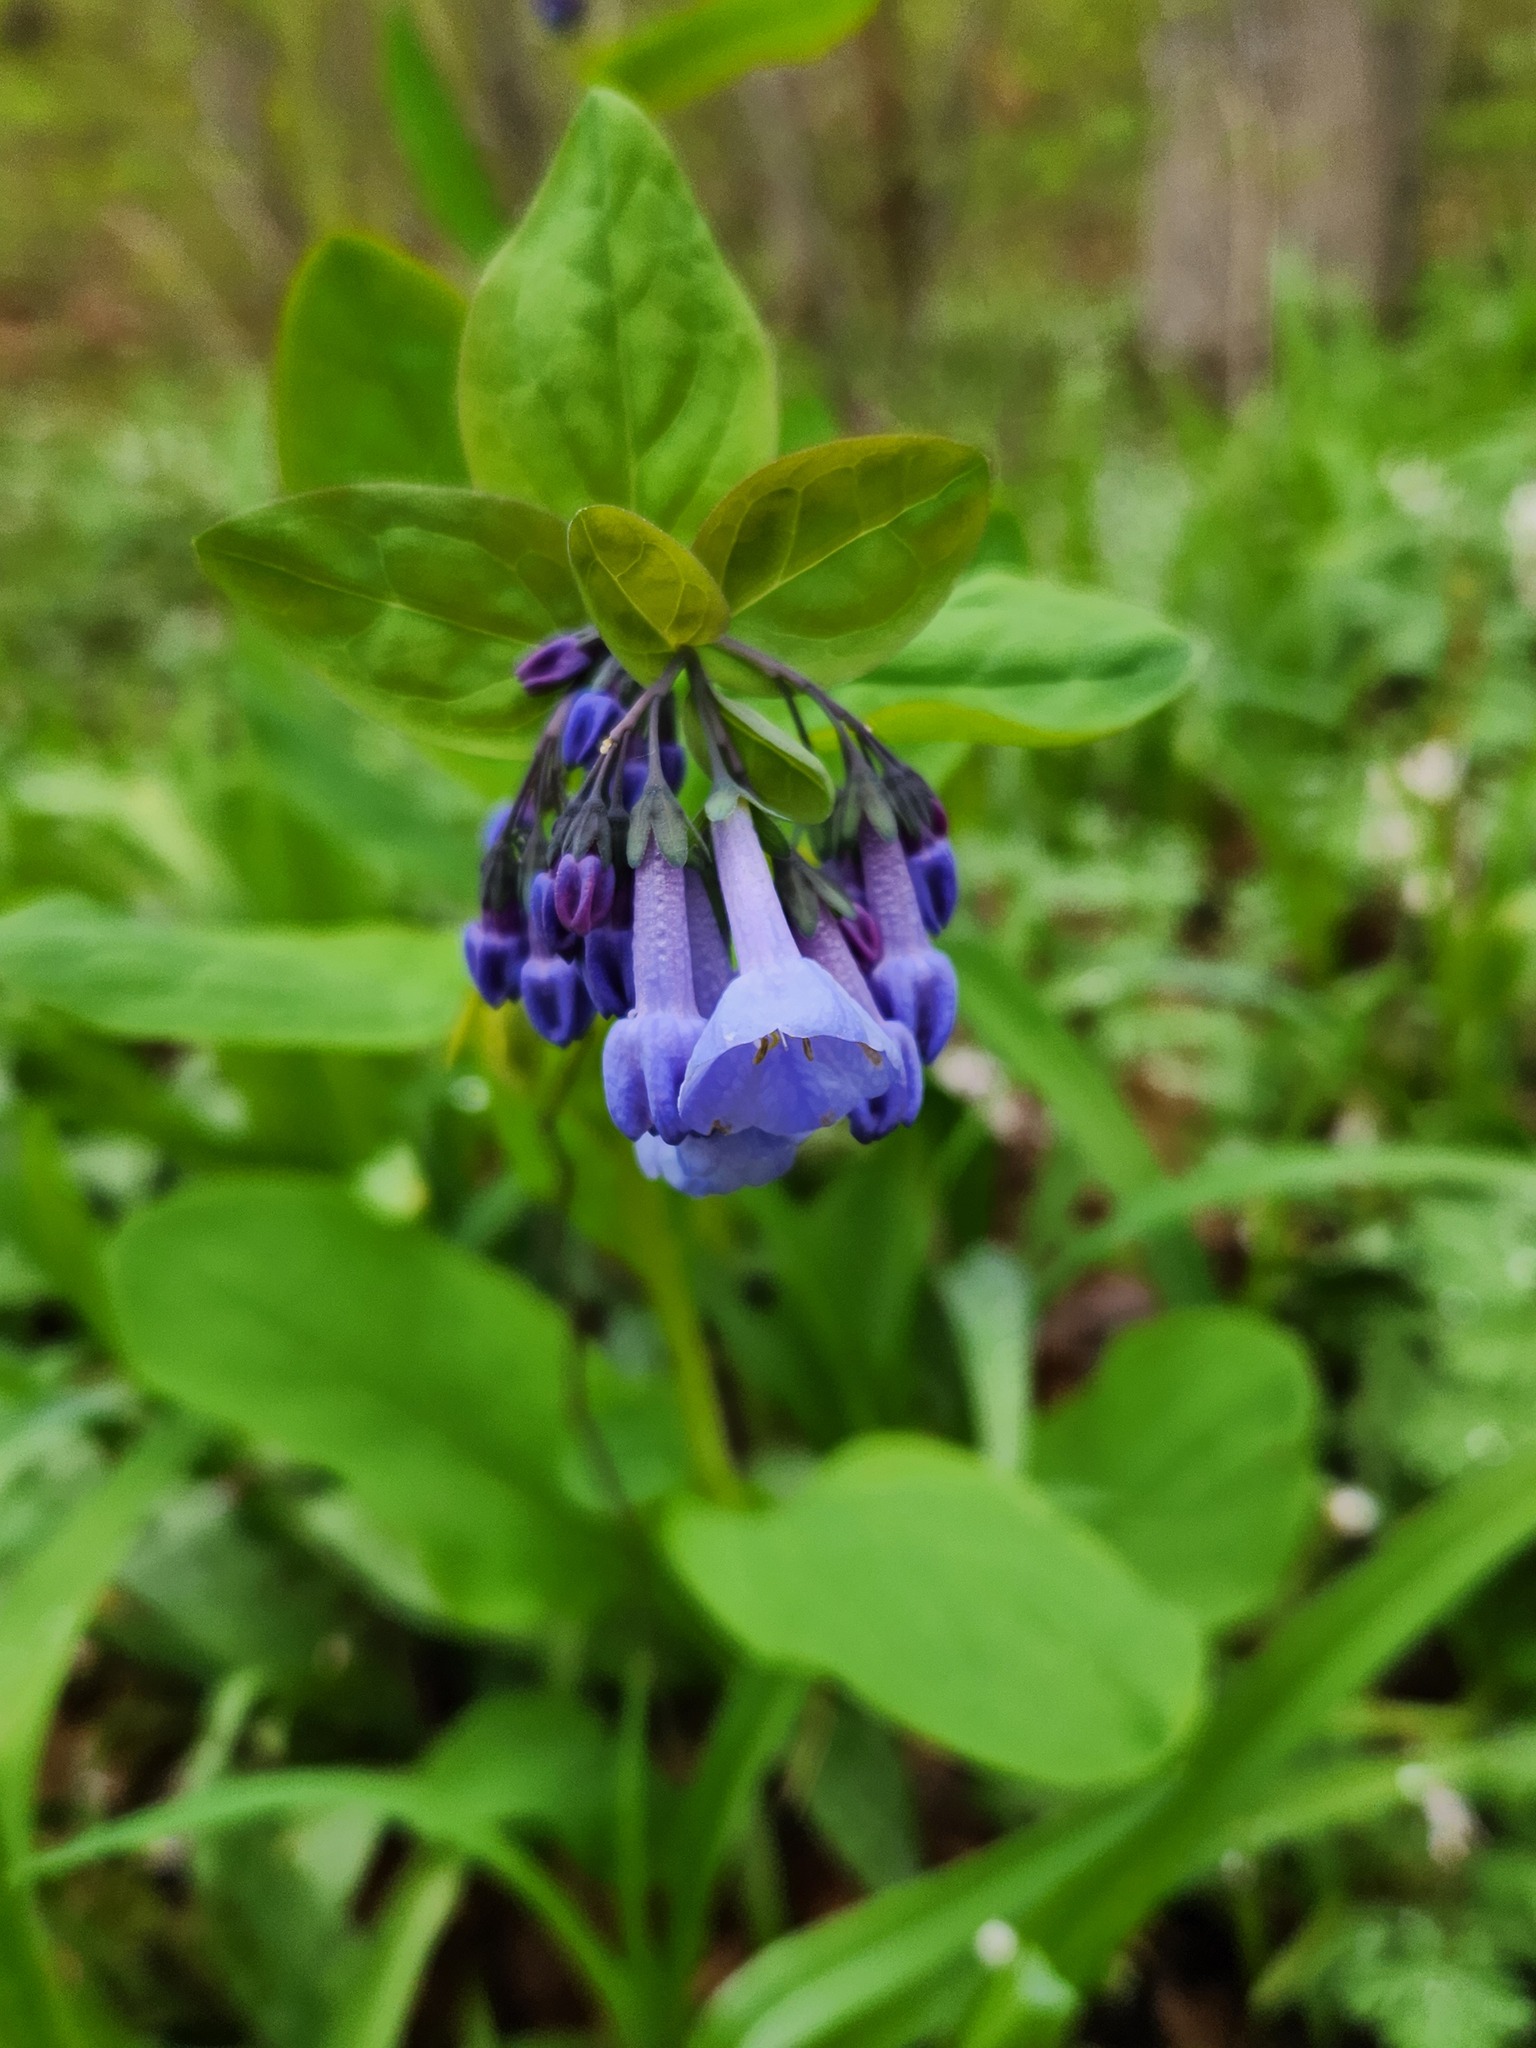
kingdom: Plantae
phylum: Tracheophyta
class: Magnoliopsida
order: Boraginales
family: Boraginaceae
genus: Mertensia
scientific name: Mertensia virginica
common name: Virginia bluebells
